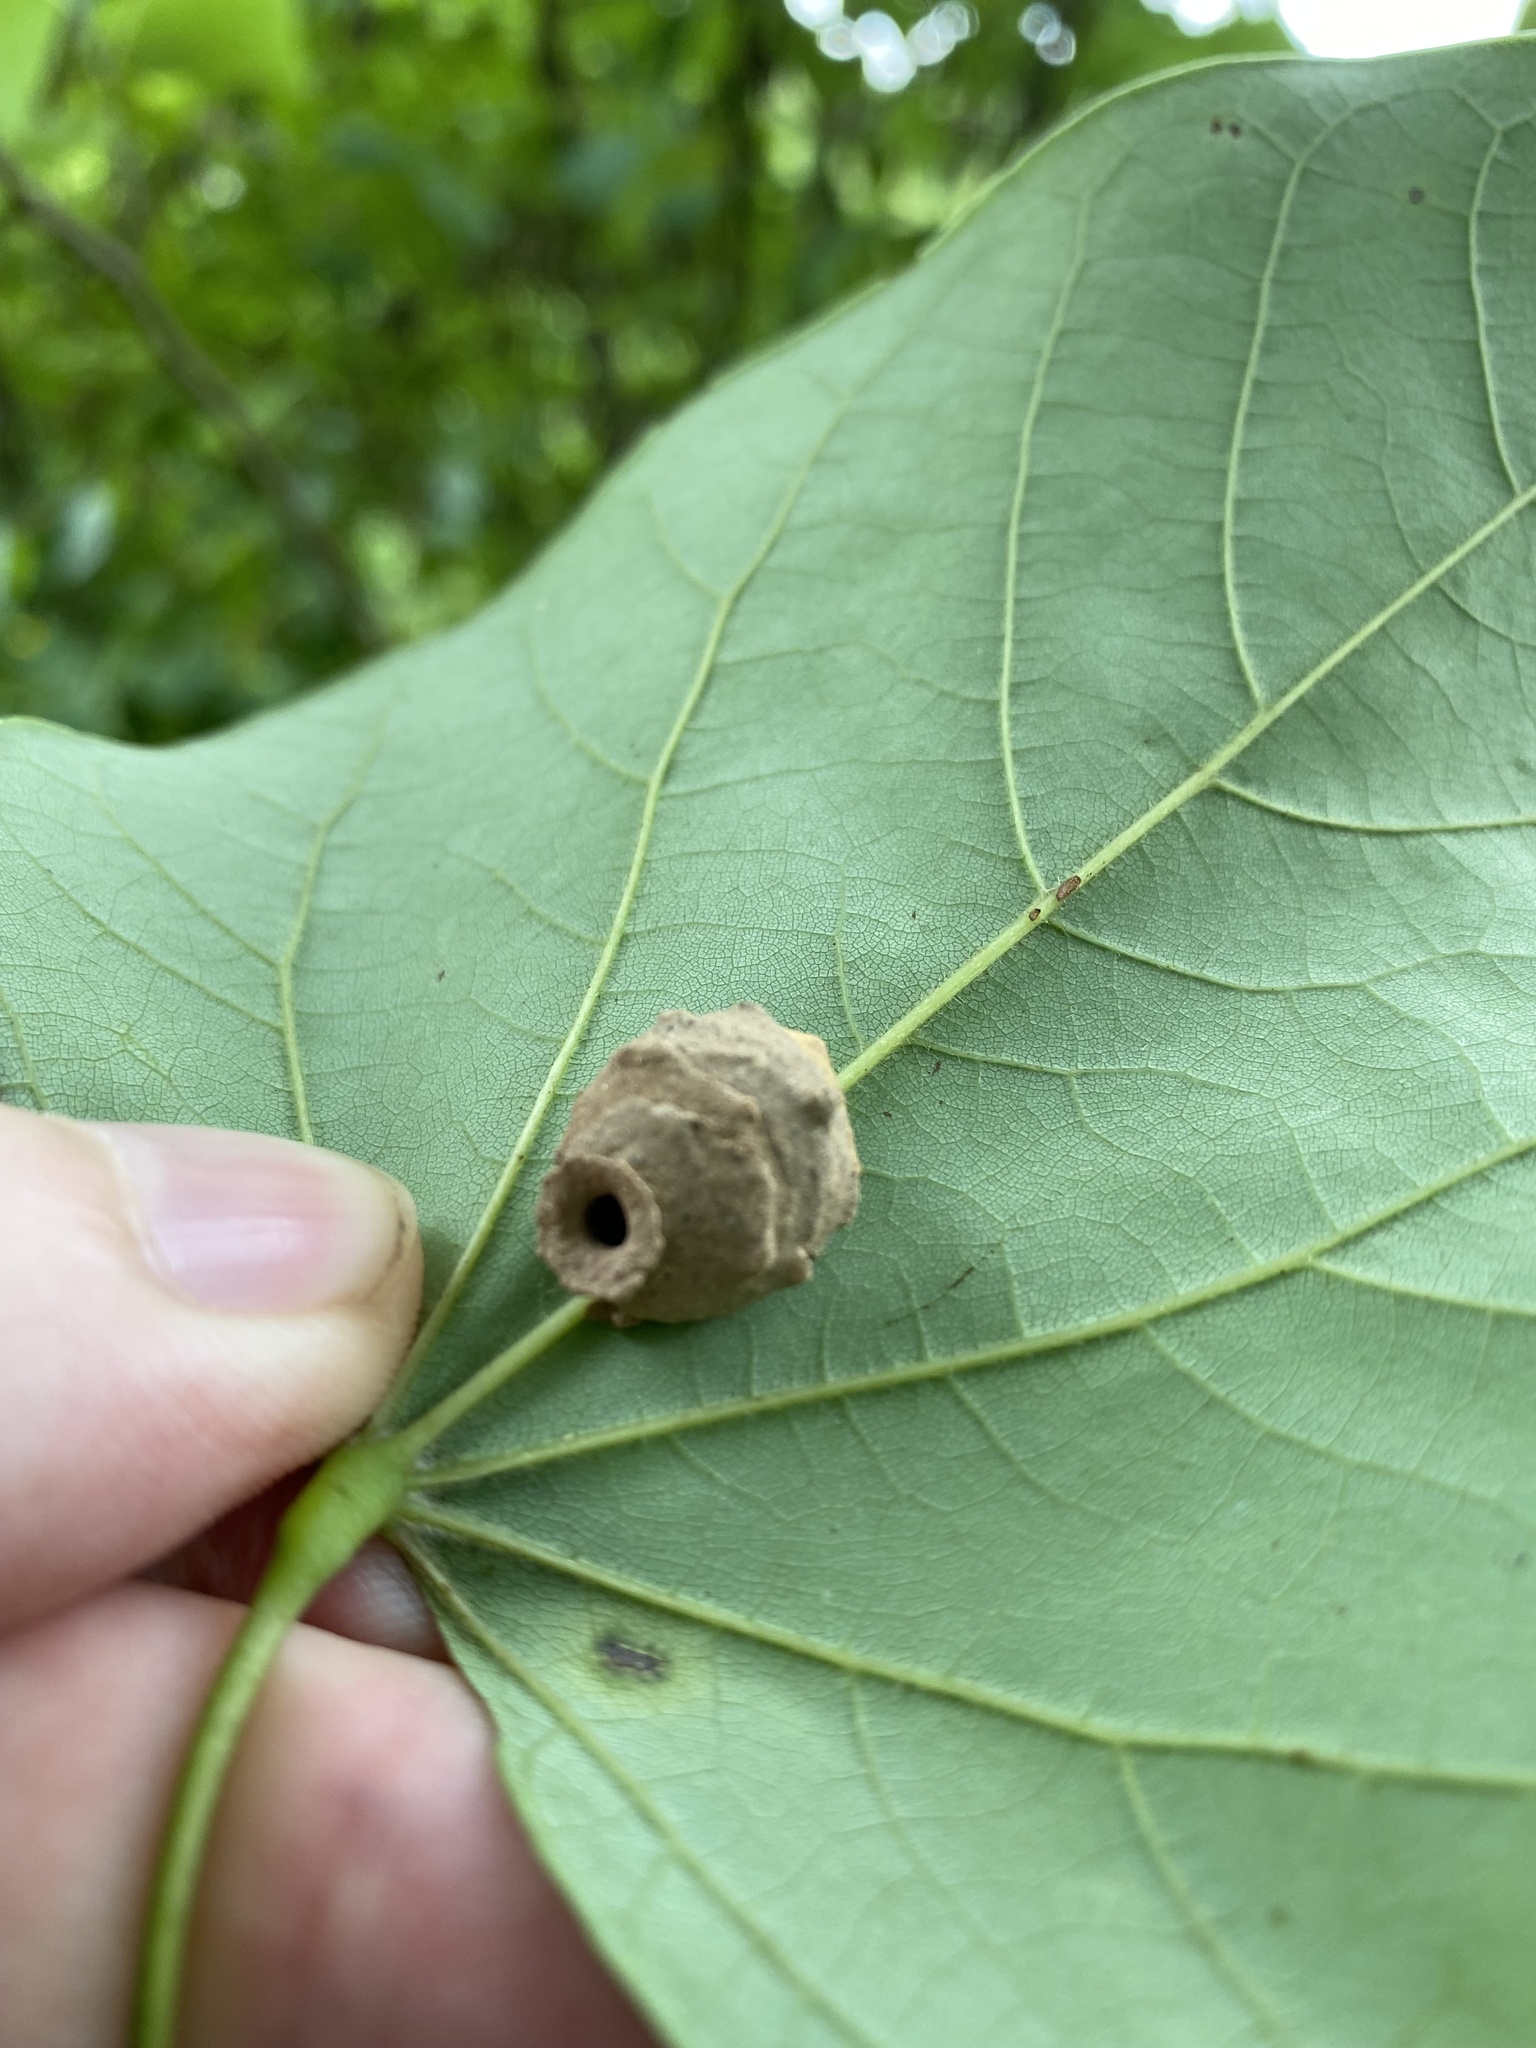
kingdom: Animalia
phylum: Arthropoda
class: Insecta
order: Hymenoptera
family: Vespidae
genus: Eumenes
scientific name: Eumenes
